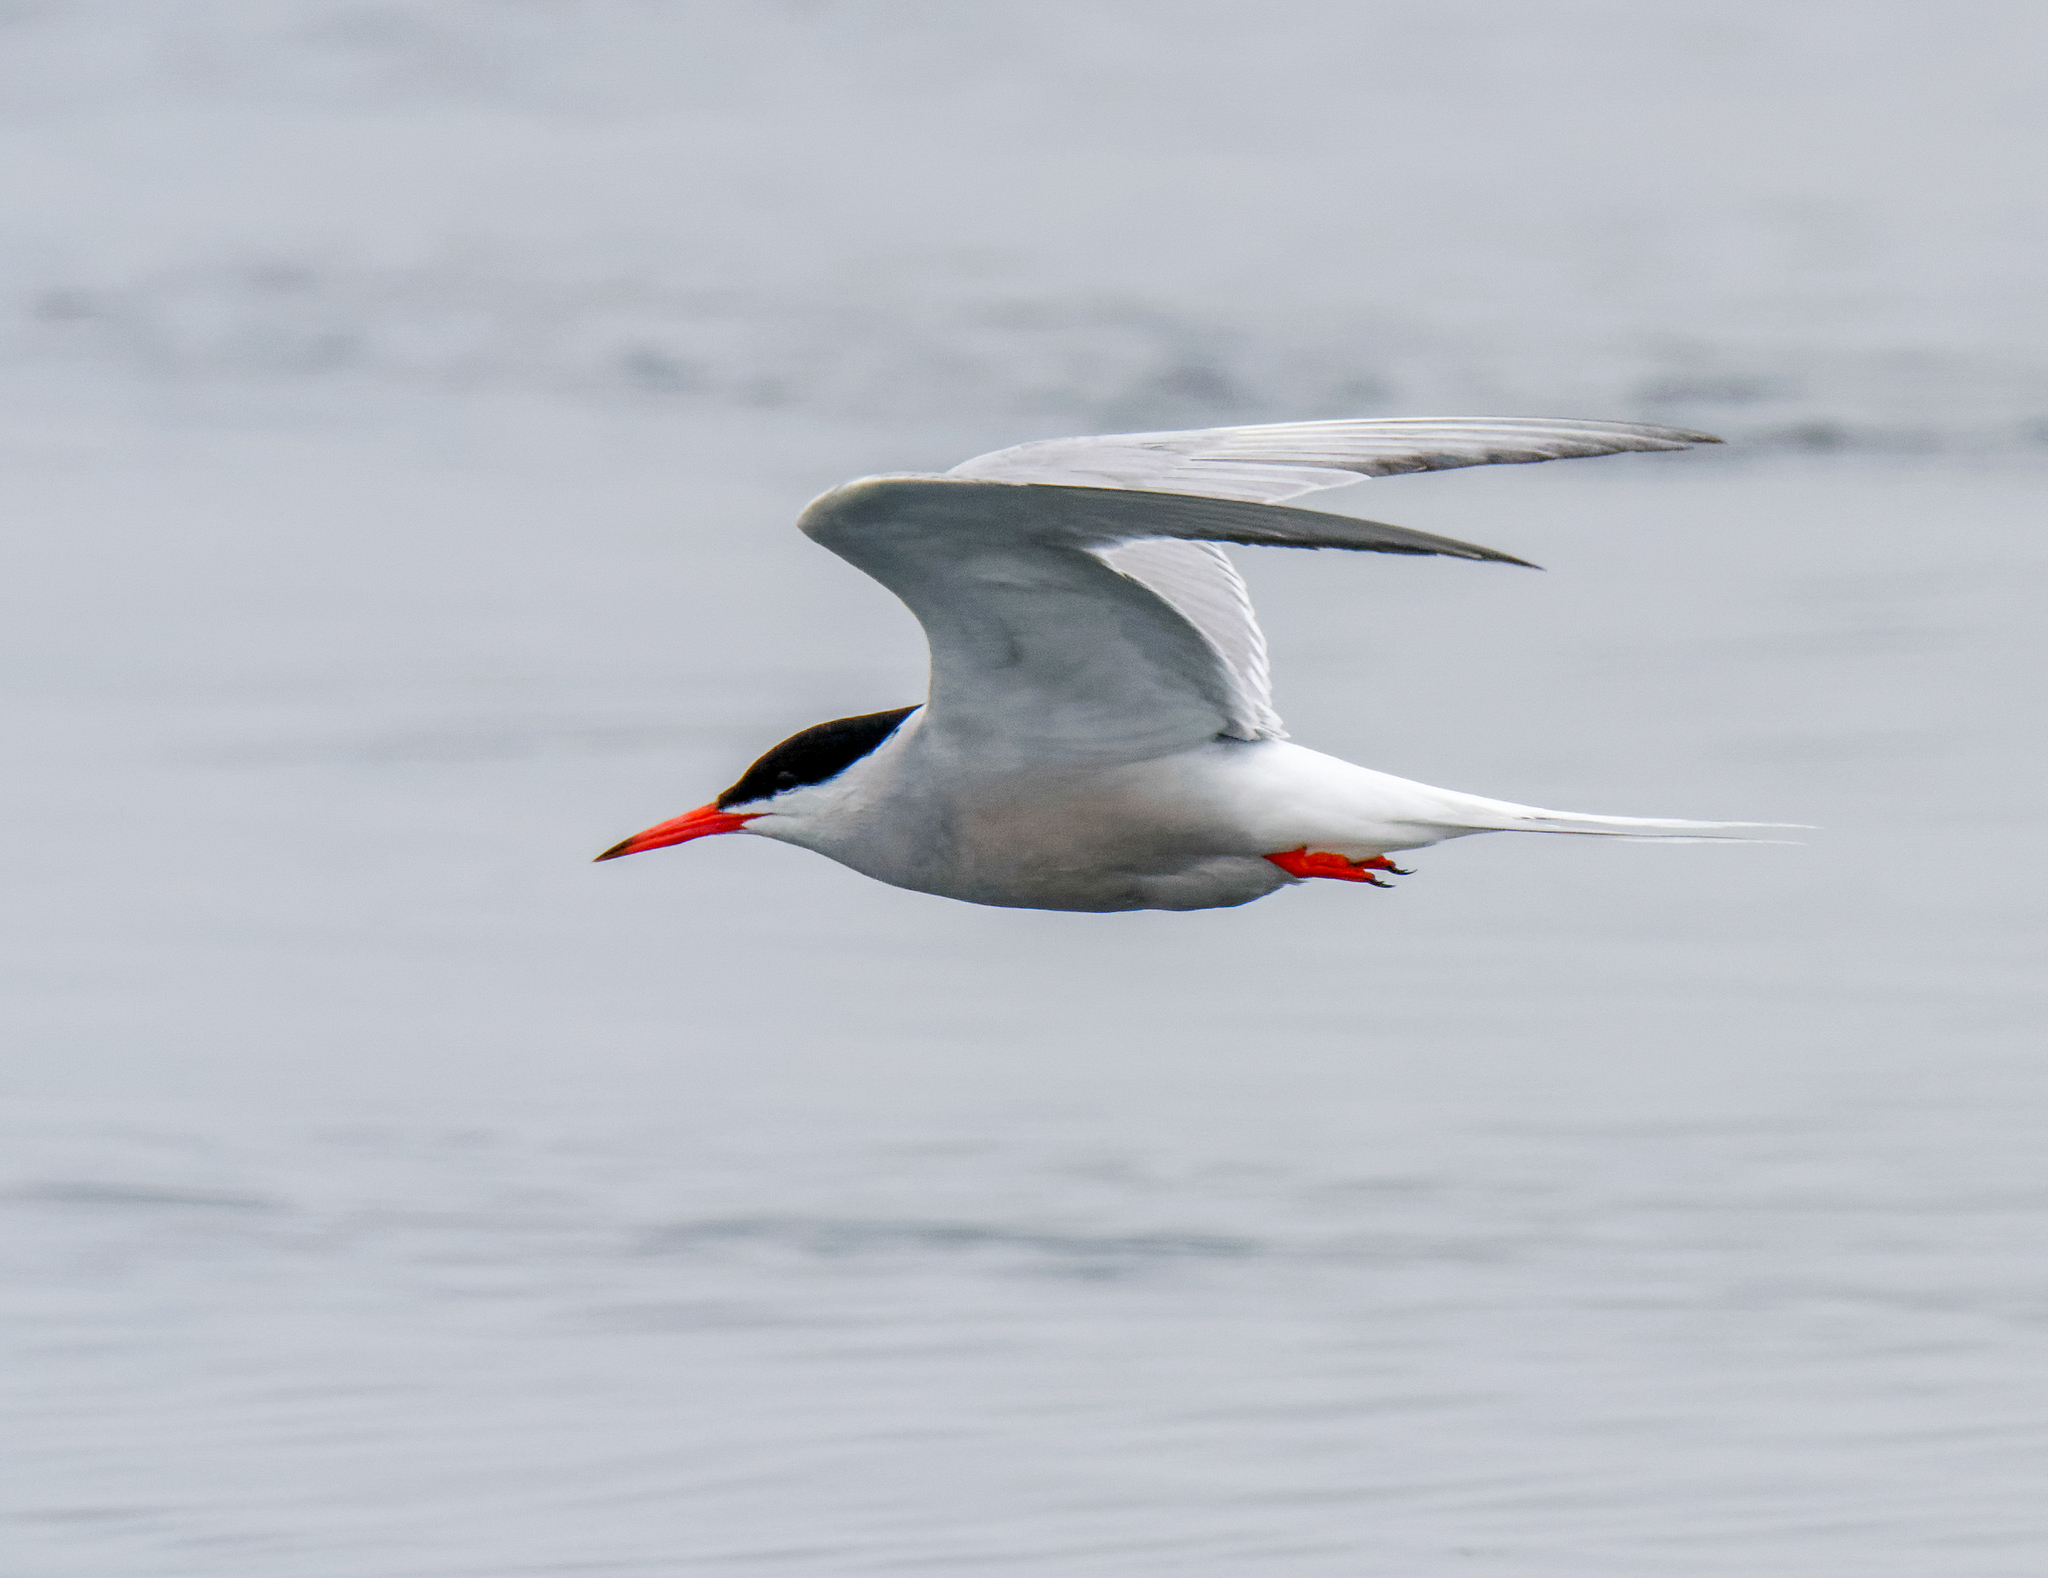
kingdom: Animalia
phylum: Chordata
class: Aves
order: Charadriiformes
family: Laridae
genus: Sterna
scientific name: Sterna hirundo
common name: Common tern
